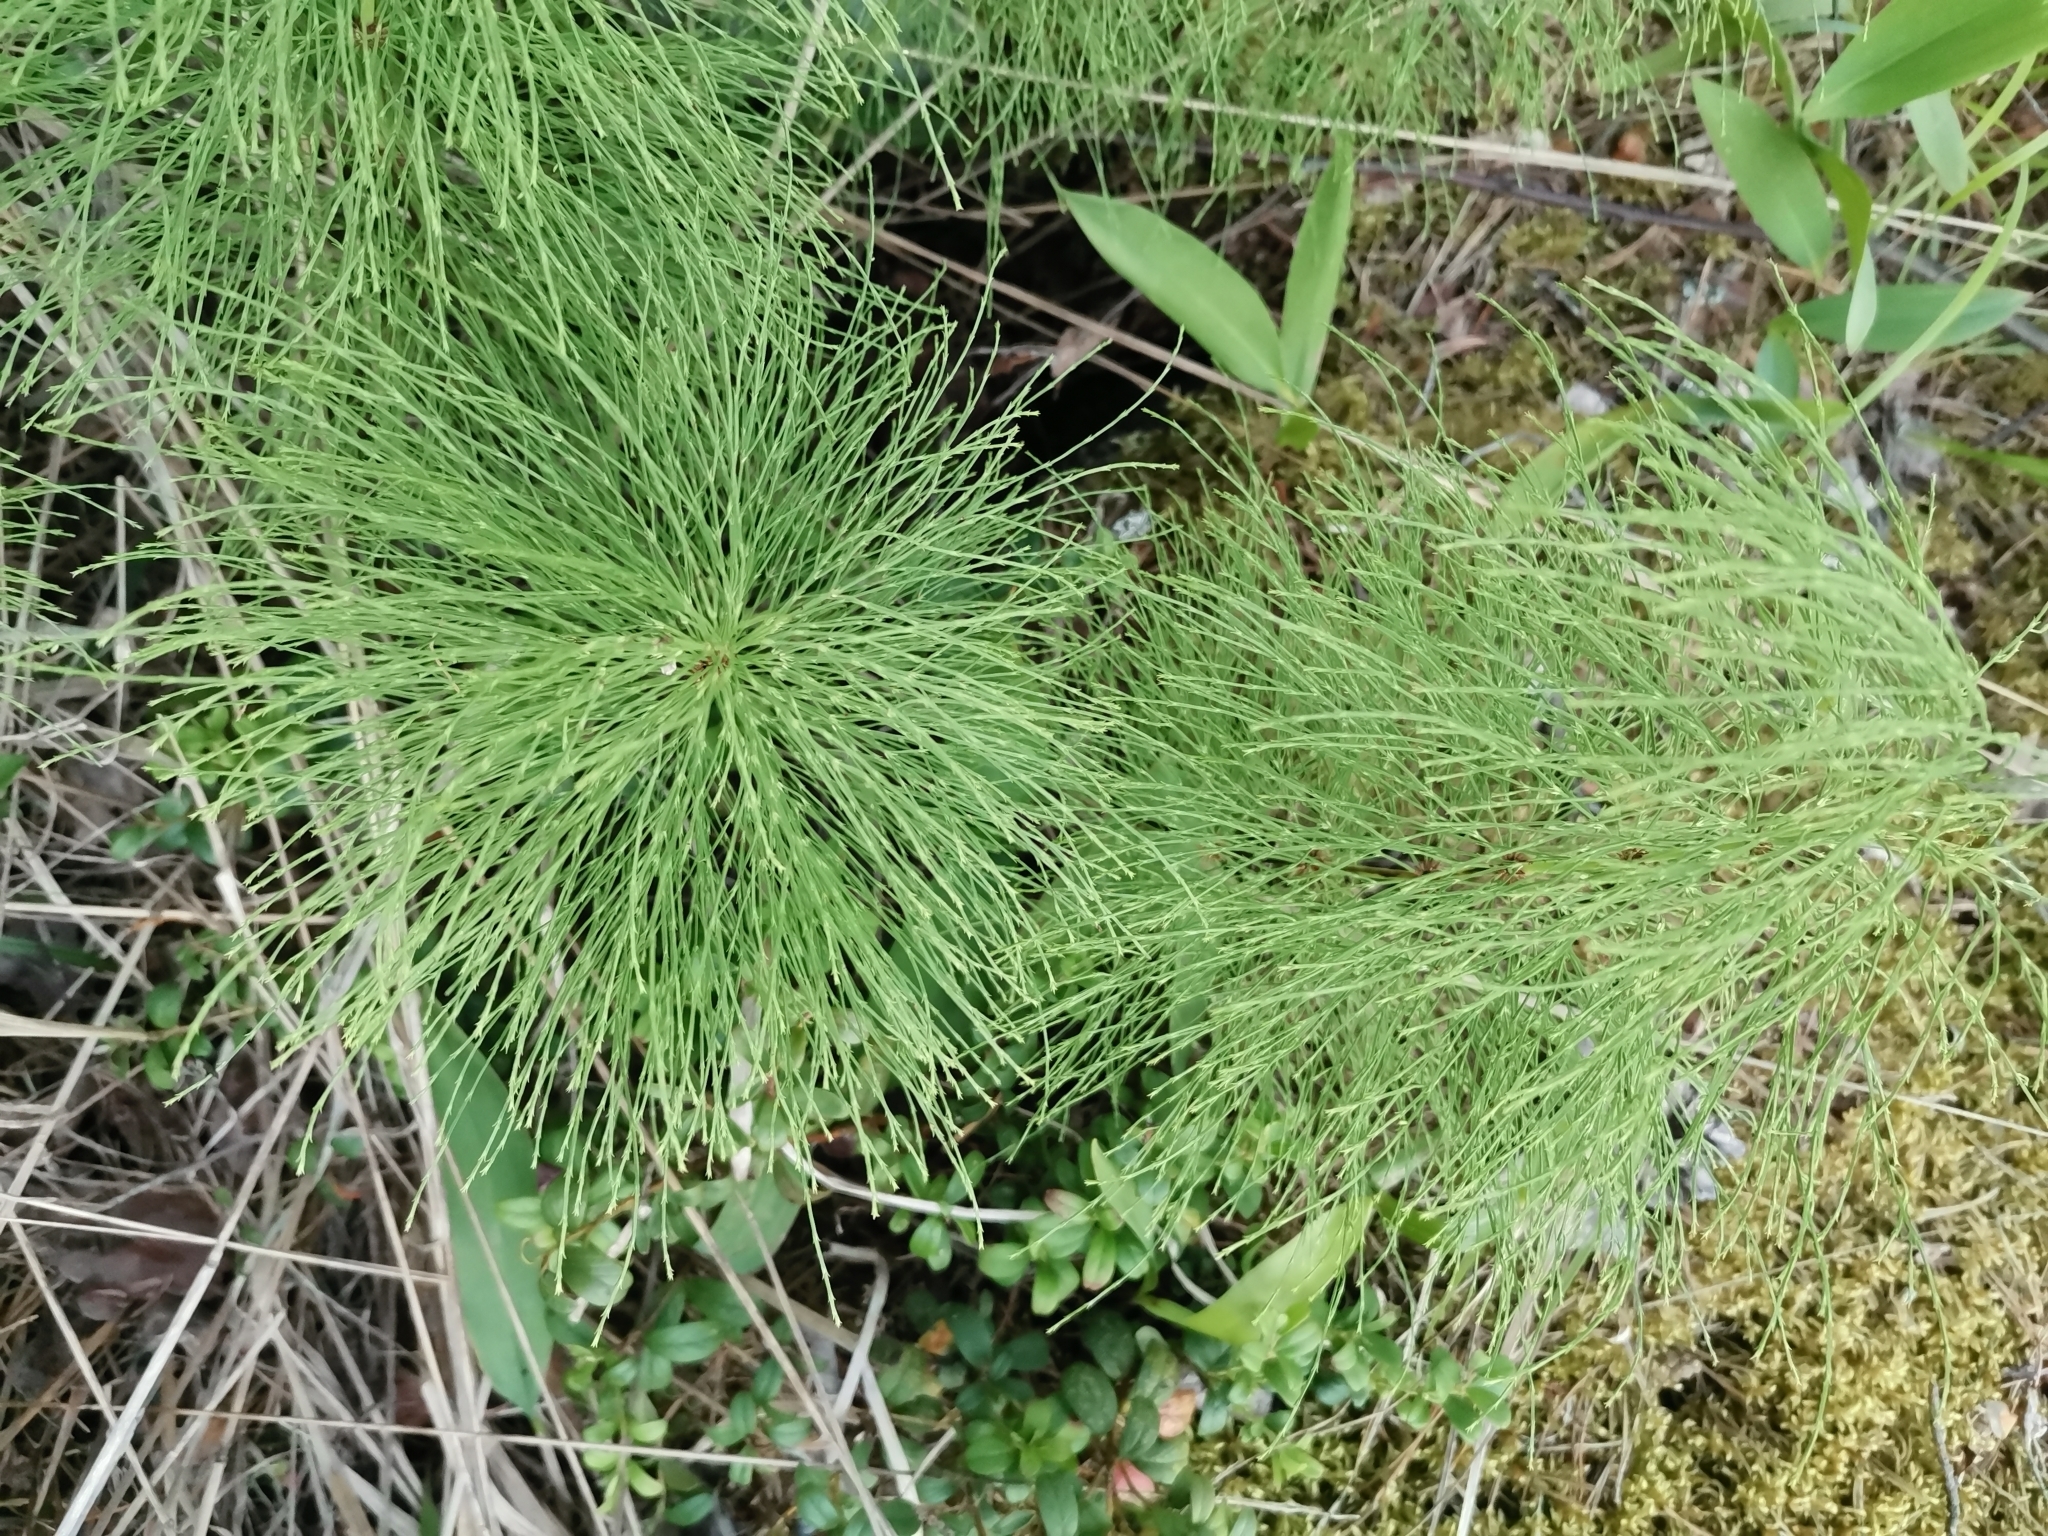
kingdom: Plantae
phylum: Tracheophyta
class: Polypodiopsida
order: Equisetales
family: Equisetaceae
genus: Equisetum
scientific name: Equisetum sylvaticum
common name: Wood horsetail
